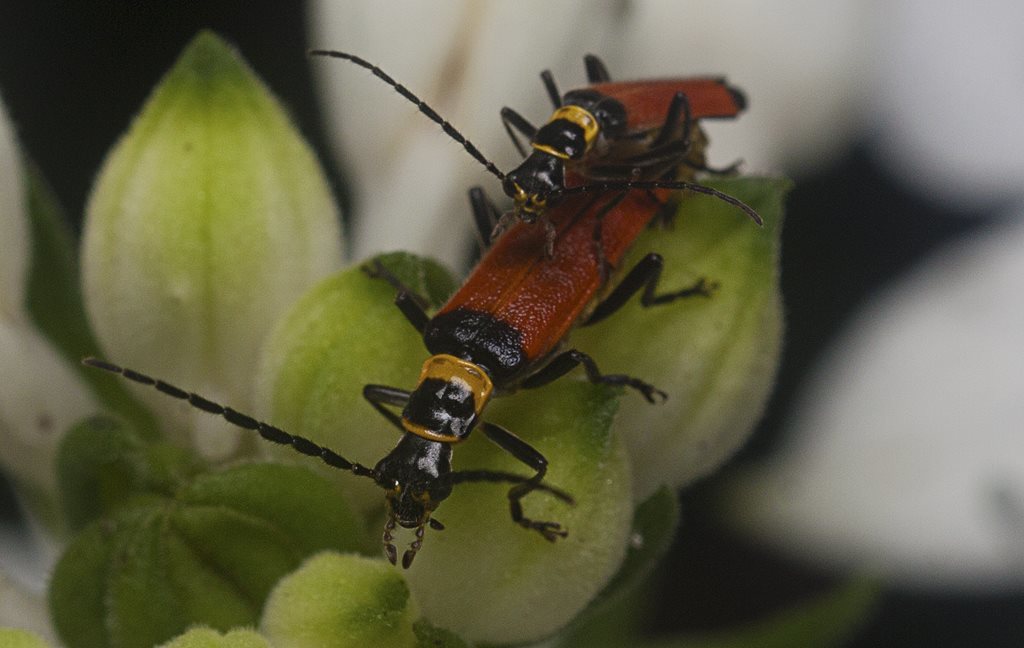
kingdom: Animalia
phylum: Arthropoda
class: Insecta
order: Coleoptera
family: Cantharidae
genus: Chauliognathus
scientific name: Chauliognathus
